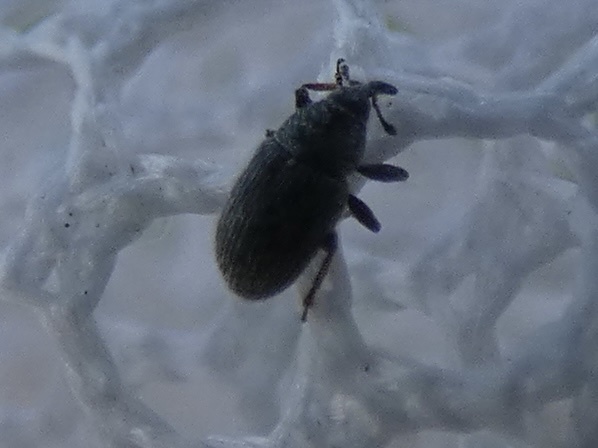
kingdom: Animalia
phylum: Arthropoda
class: Insecta
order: Coleoptera
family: Curculionidae
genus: Mecinus
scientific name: Mecinus pascuorum
